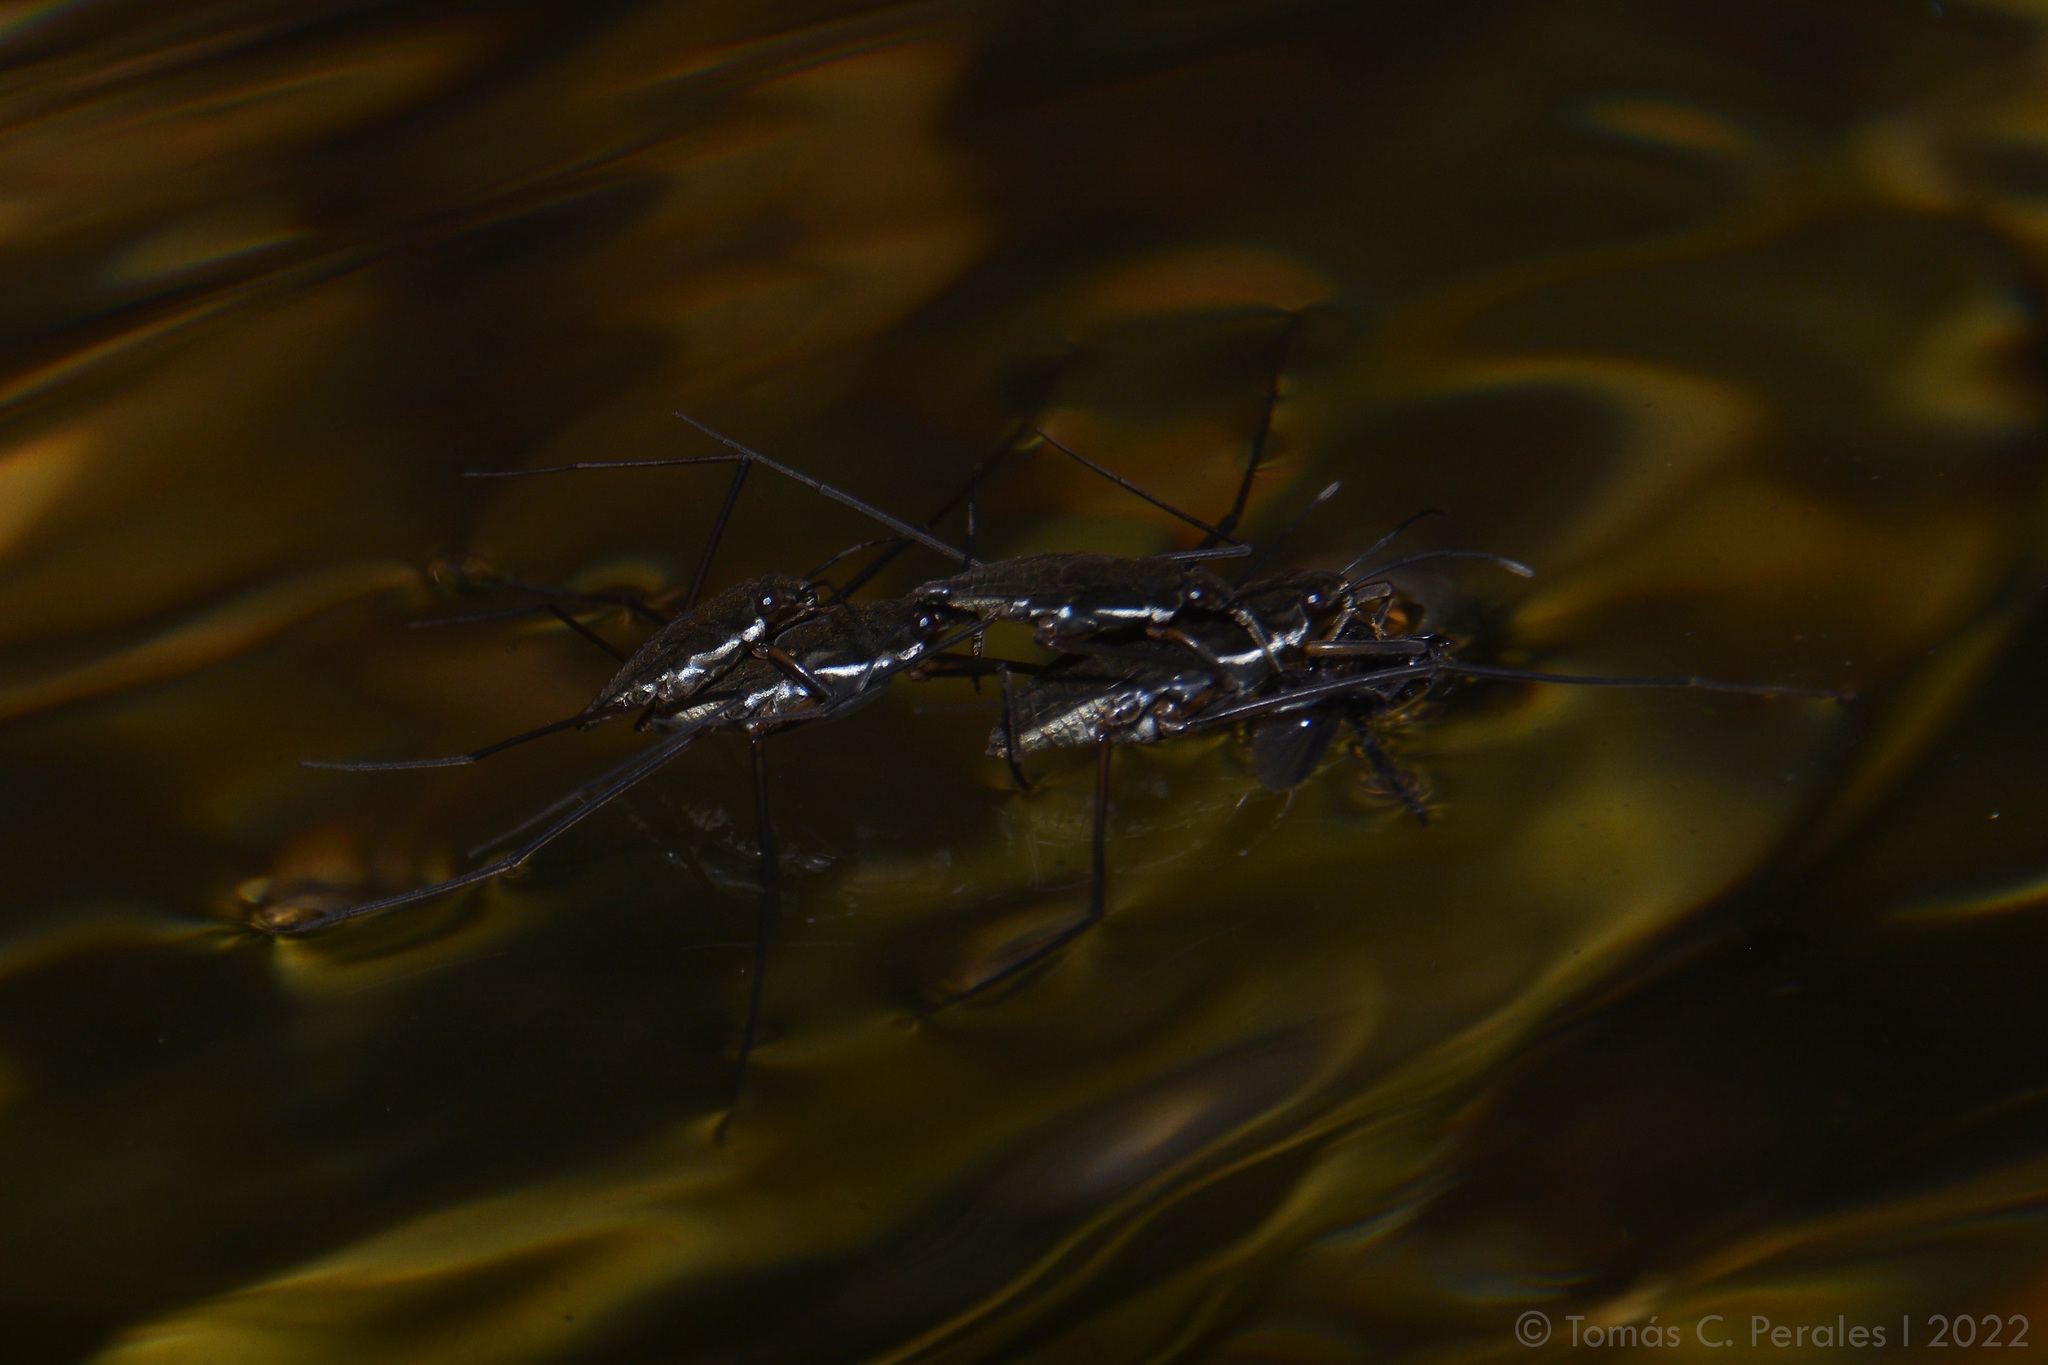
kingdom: Animalia
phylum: Arthropoda
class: Insecta
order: Hemiptera
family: Gerridae
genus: Eurygerris
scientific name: Eurygerris fuscinervis
